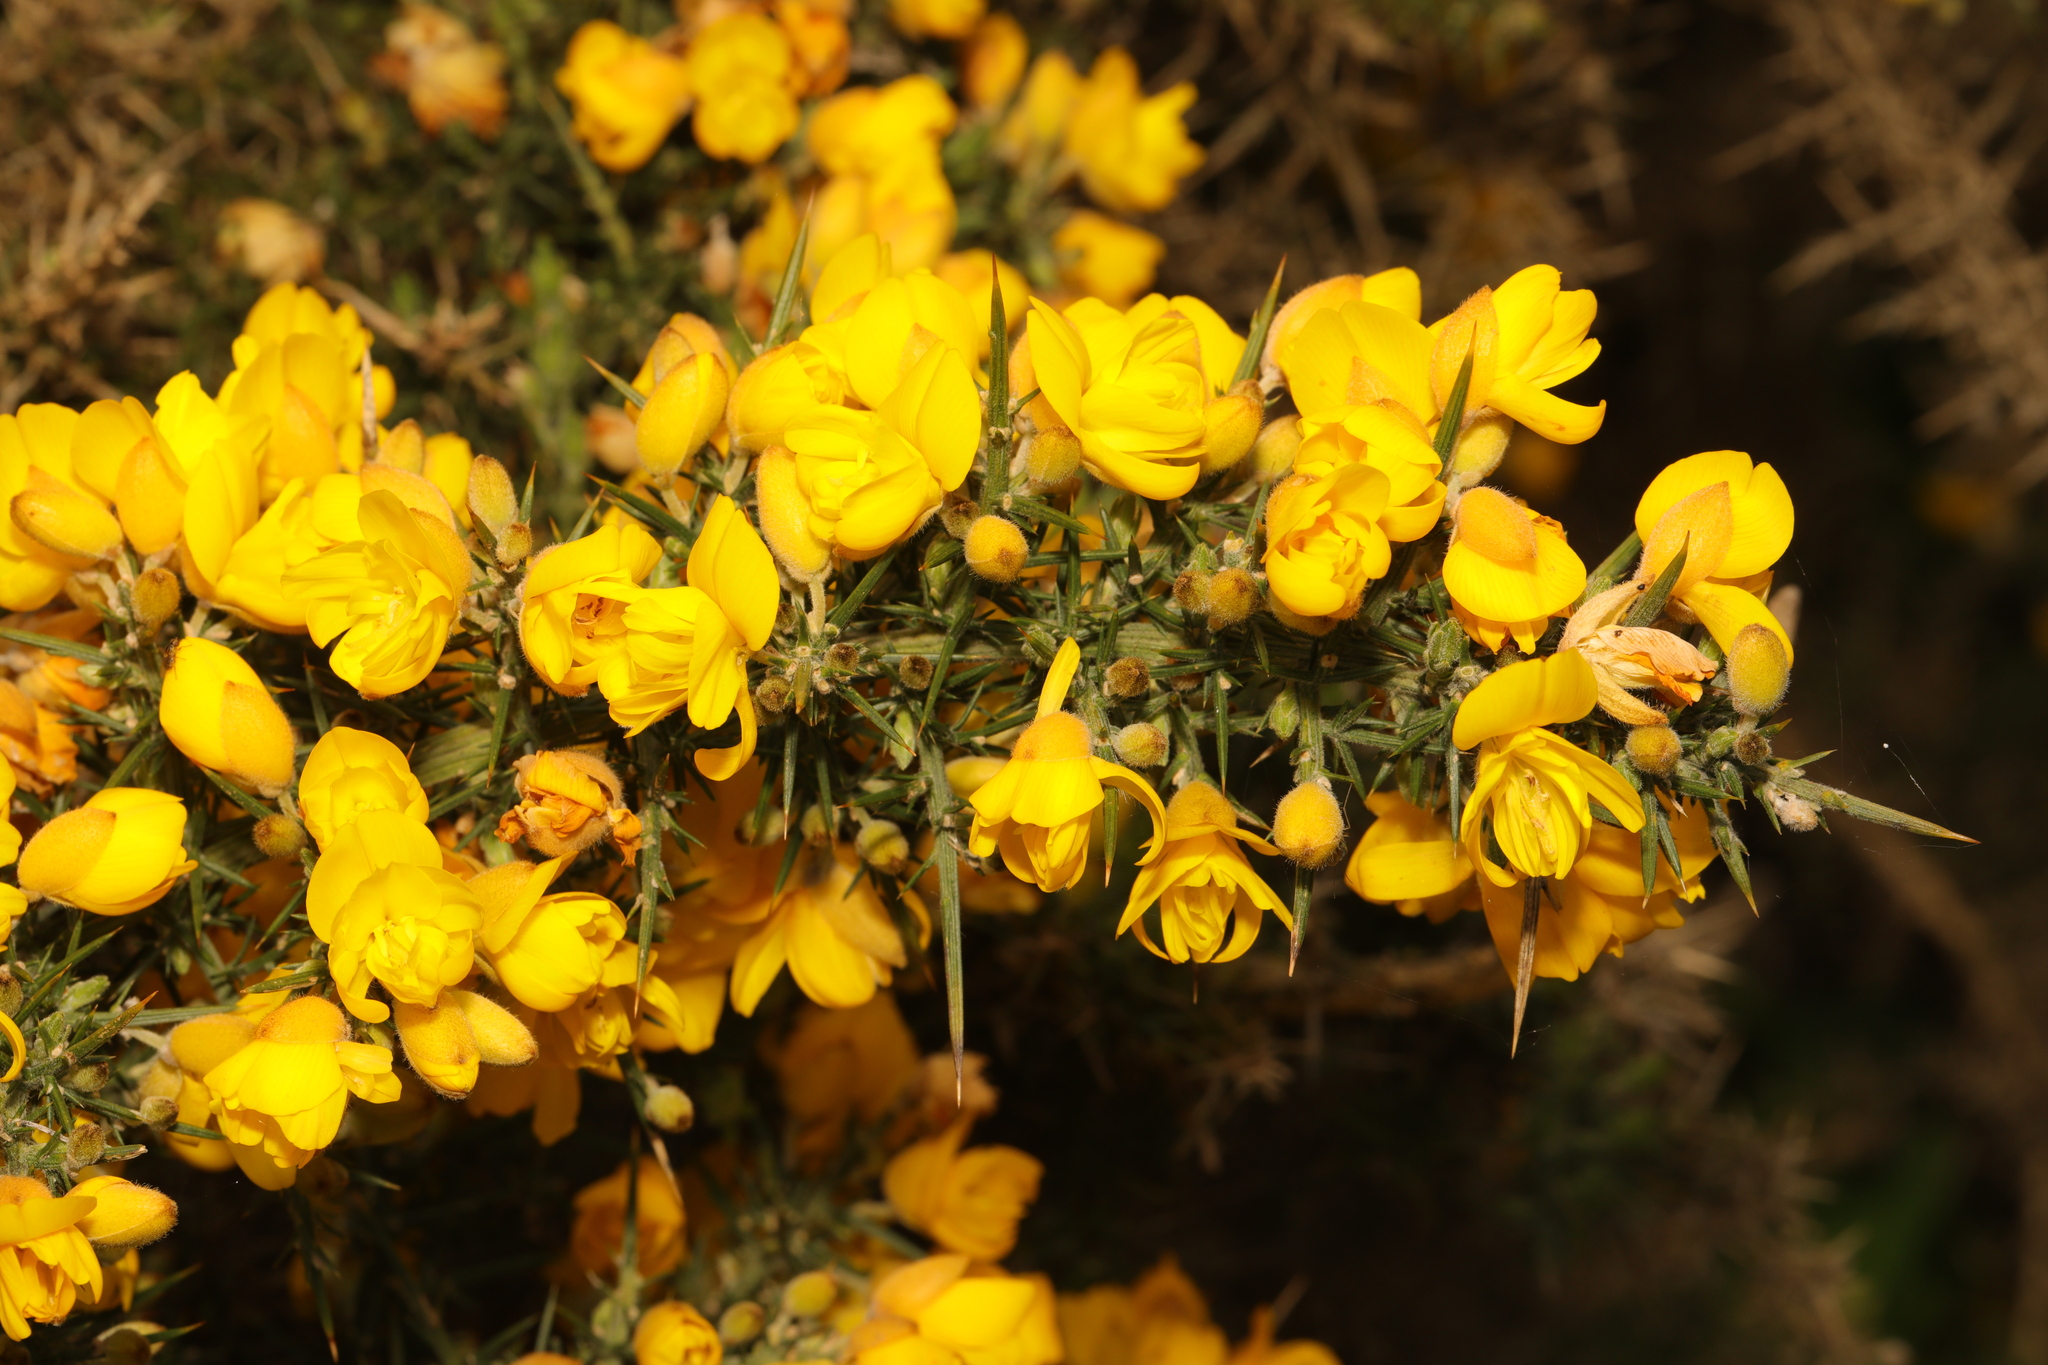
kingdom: Plantae
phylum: Tracheophyta
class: Magnoliopsida
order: Fabales
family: Fabaceae
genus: Ulex
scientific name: Ulex europaeus
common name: Common gorse
